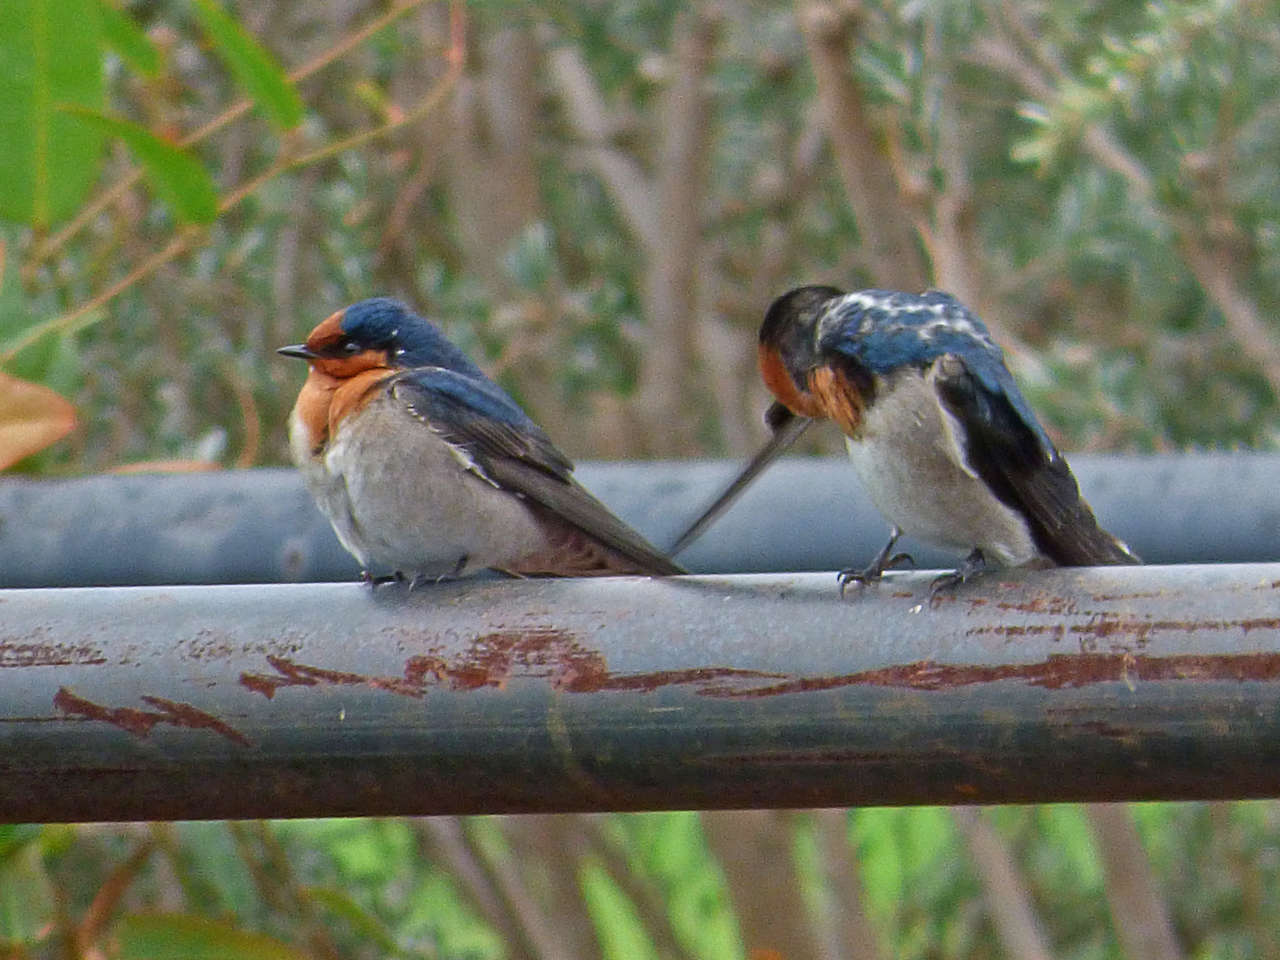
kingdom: Animalia
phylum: Chordata
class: Aves
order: Passeriformes
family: Hirundinidae
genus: Hirundo
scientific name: Hirundo neoxena
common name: Welcome swallow
